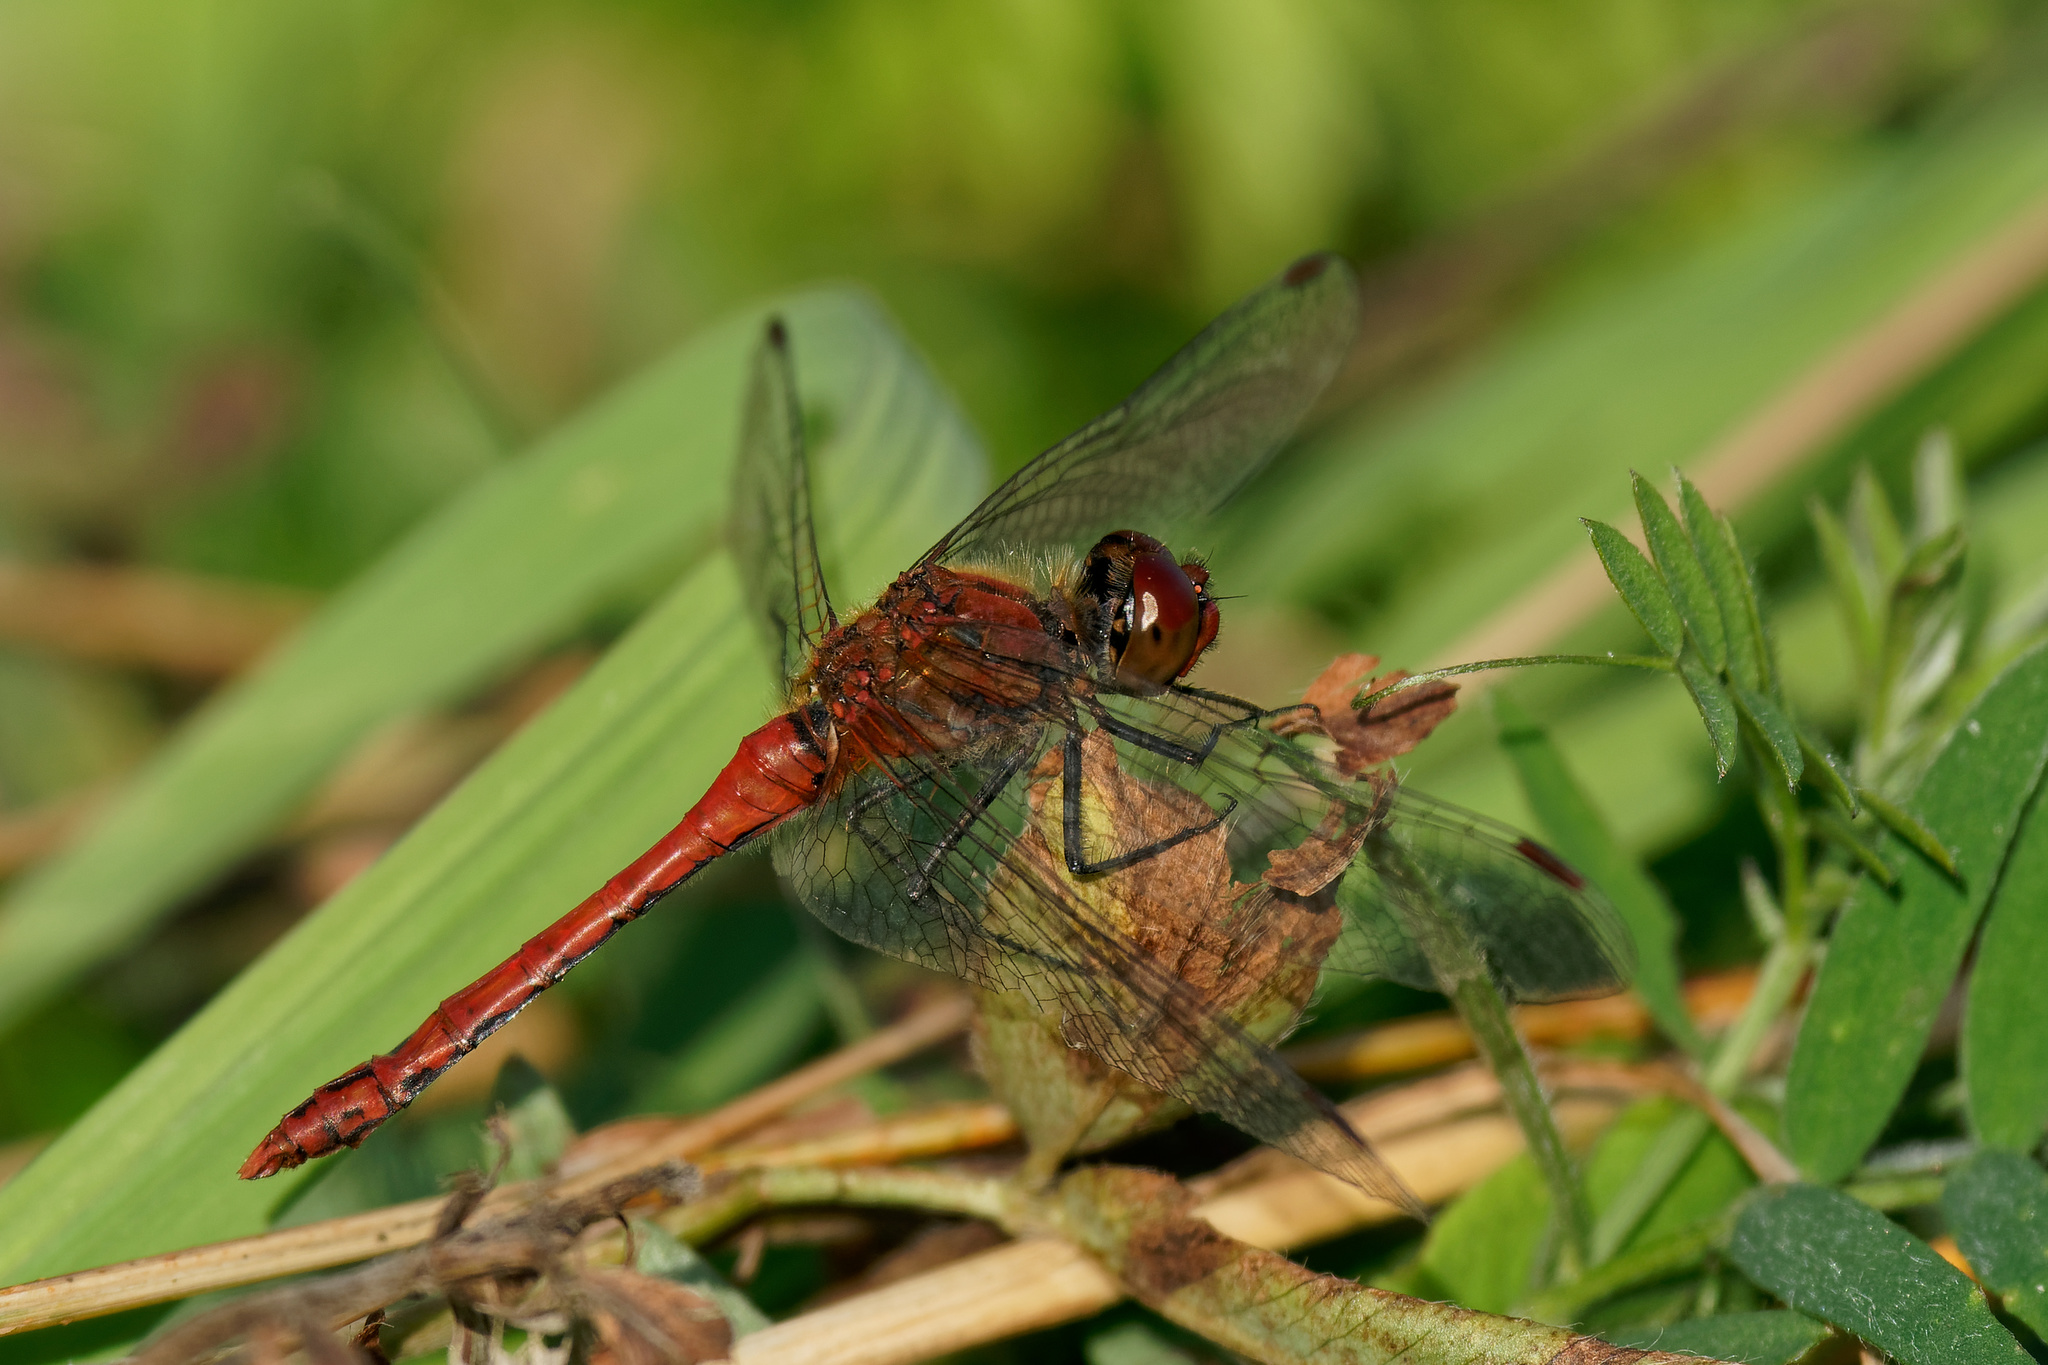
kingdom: Animalia
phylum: Arthropoda
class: Insecta
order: Odonata
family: Libellulidae
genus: Sympetrum
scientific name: Sympetrum sanguineum
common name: Ruddy darter
